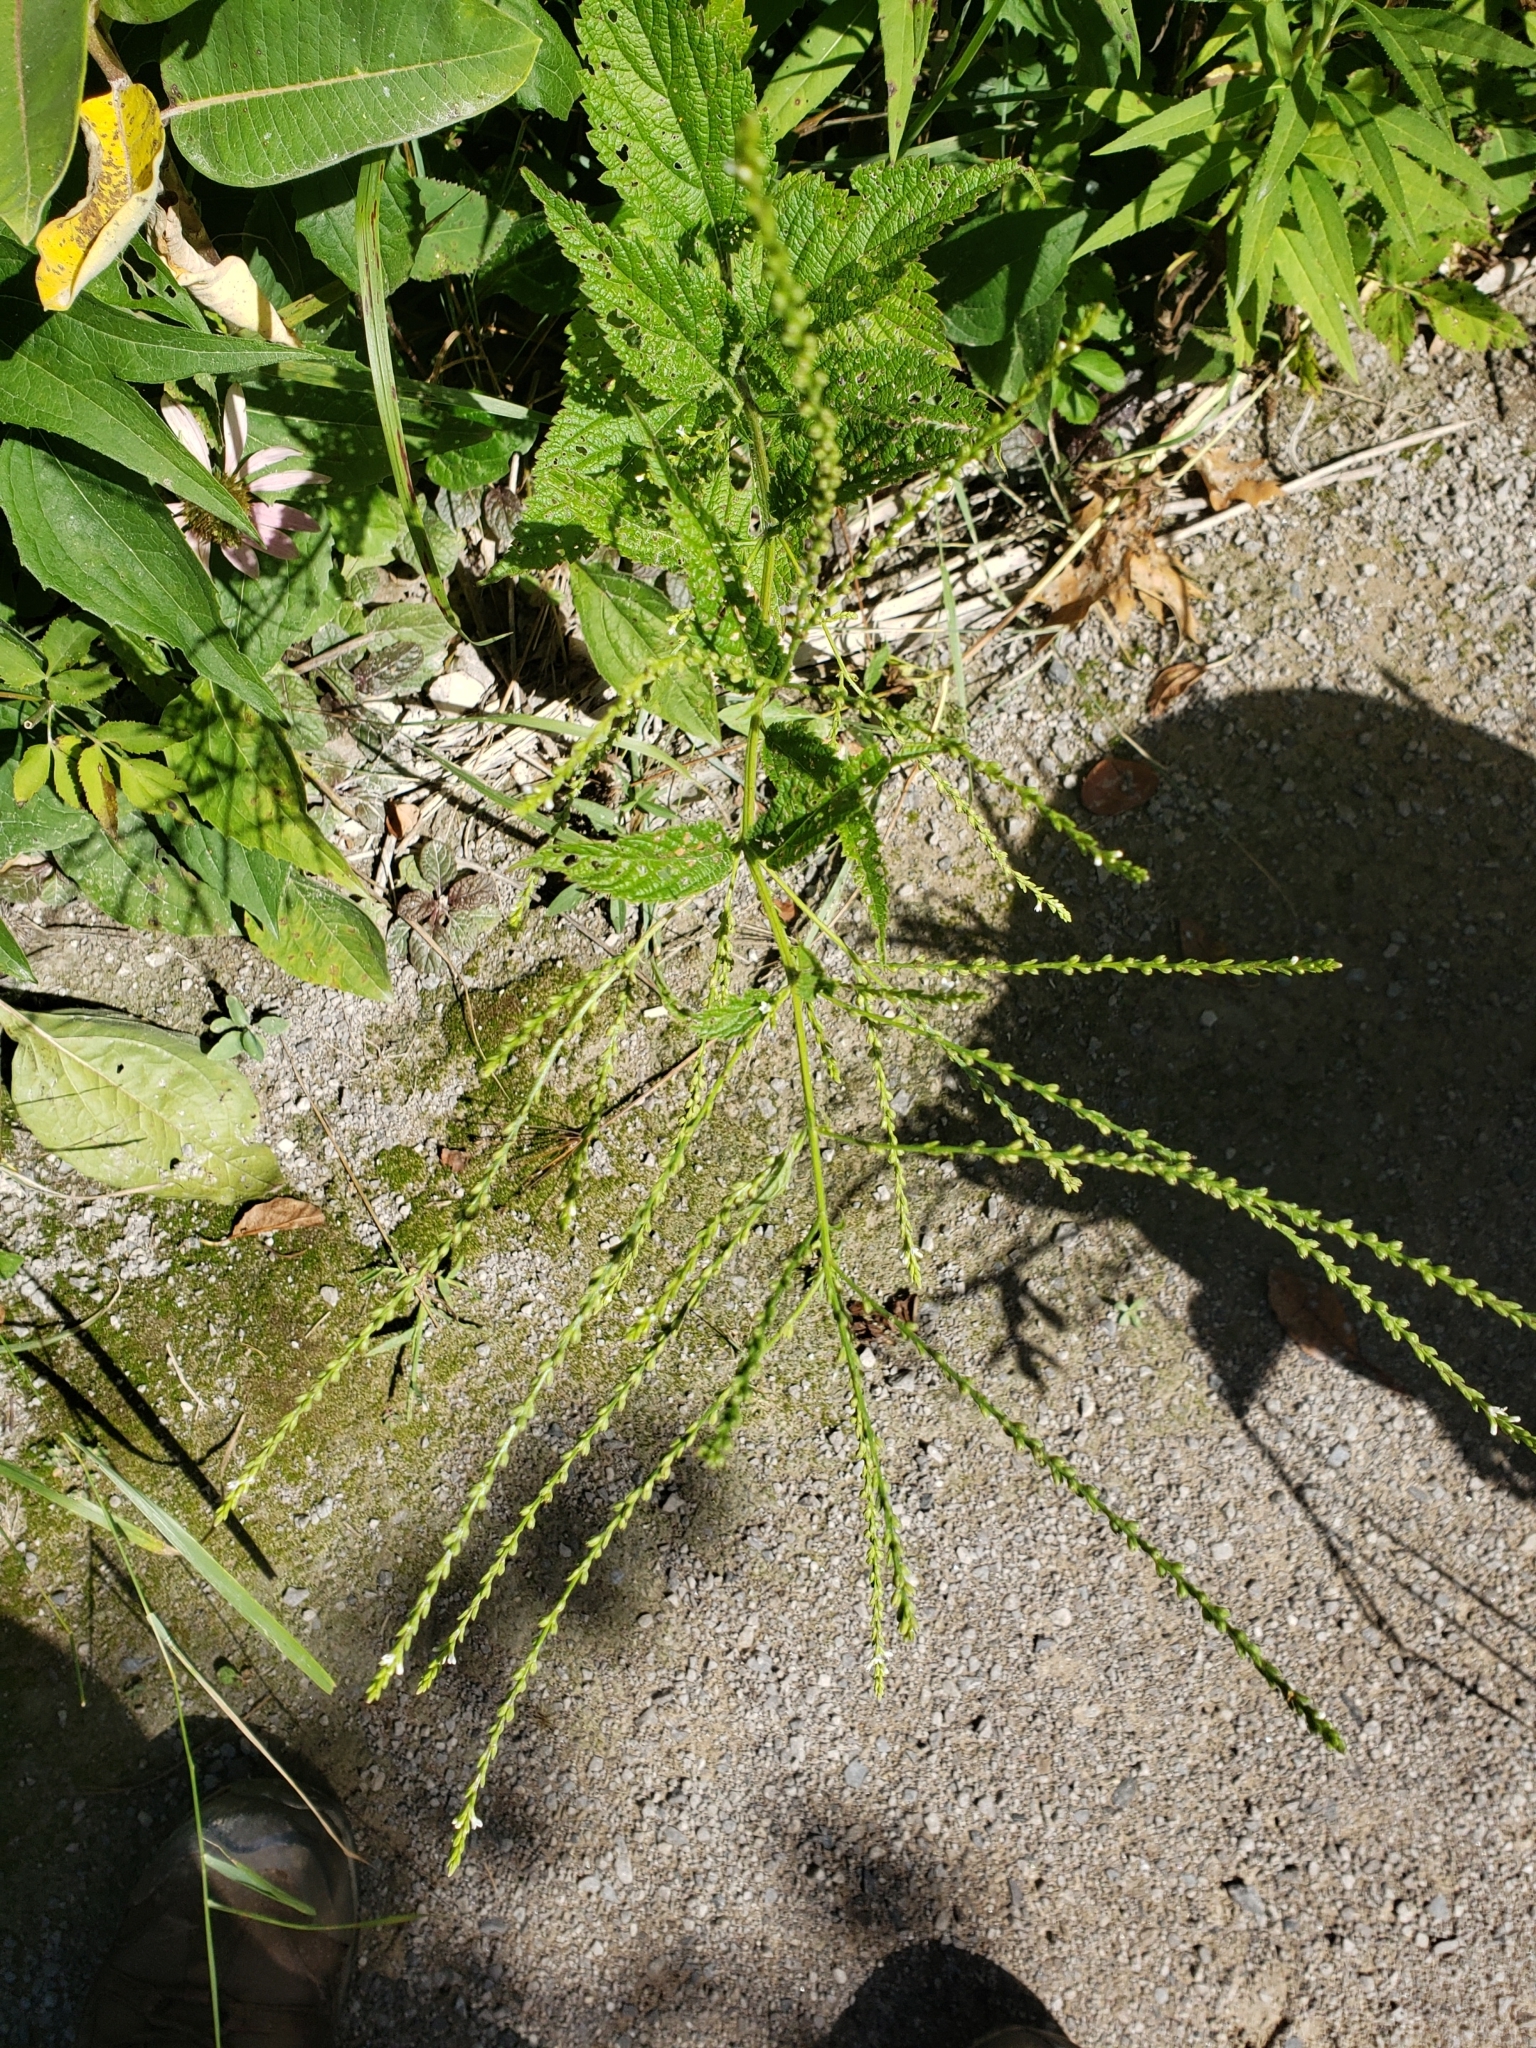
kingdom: Plantae
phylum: Tracheophyta
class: Magnoliopsida
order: Lamiales
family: Verbenaceae
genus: Verbena
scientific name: Verbena urticifolia
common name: Nettle-leaved vervain
